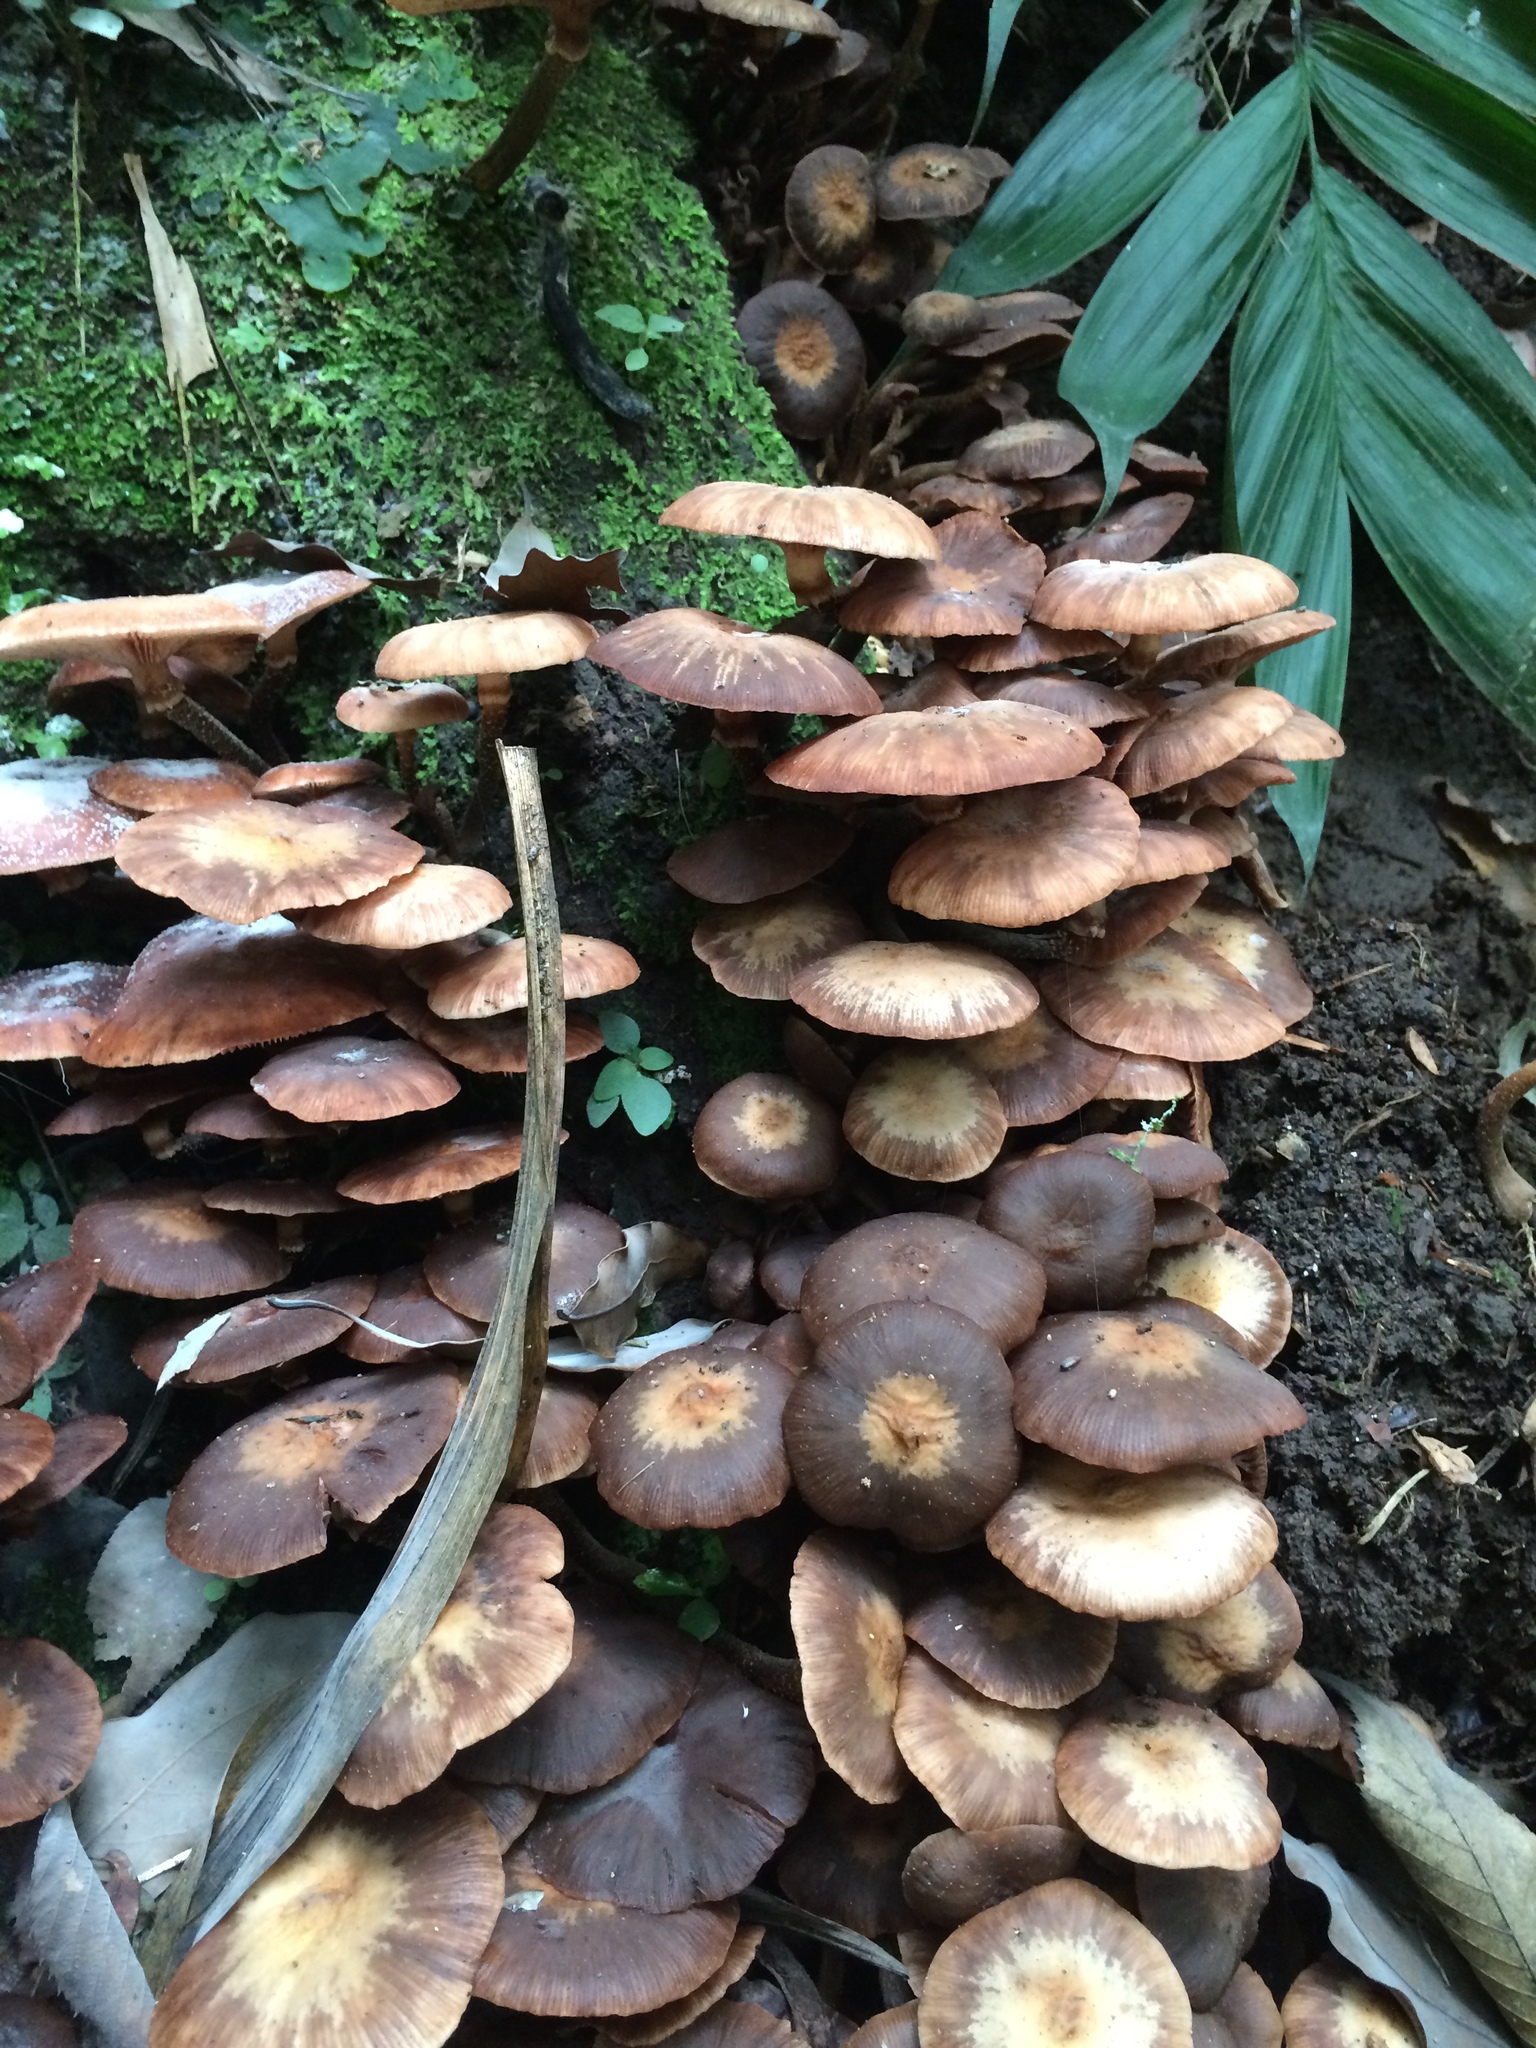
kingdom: Fungi
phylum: Basidiomycota
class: Agaricomycetes
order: Agaricales
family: Physalacriaceae
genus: Armillaria
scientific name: Armillaria mexicana
